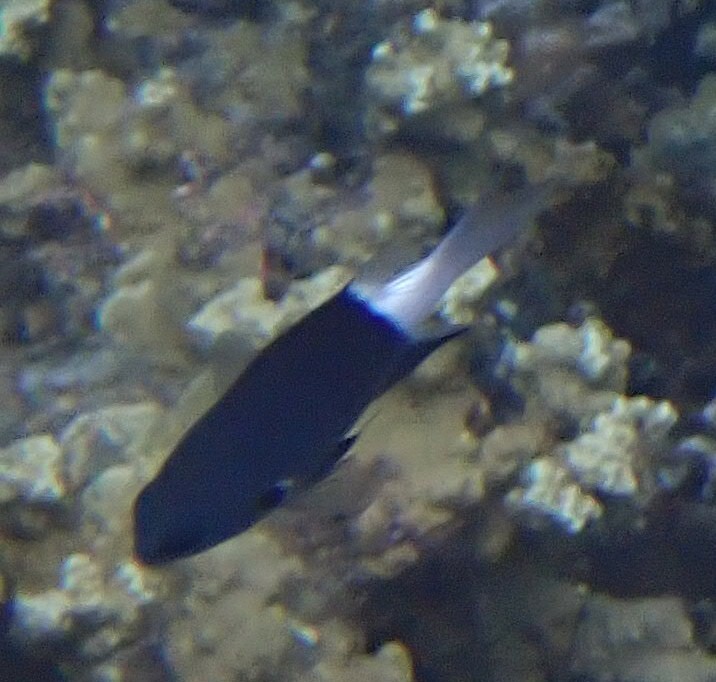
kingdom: Animalia
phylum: Chordata
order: Perciformes
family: Pomacentridae
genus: Pycnochromis
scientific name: Pycnochromis margaritifer
